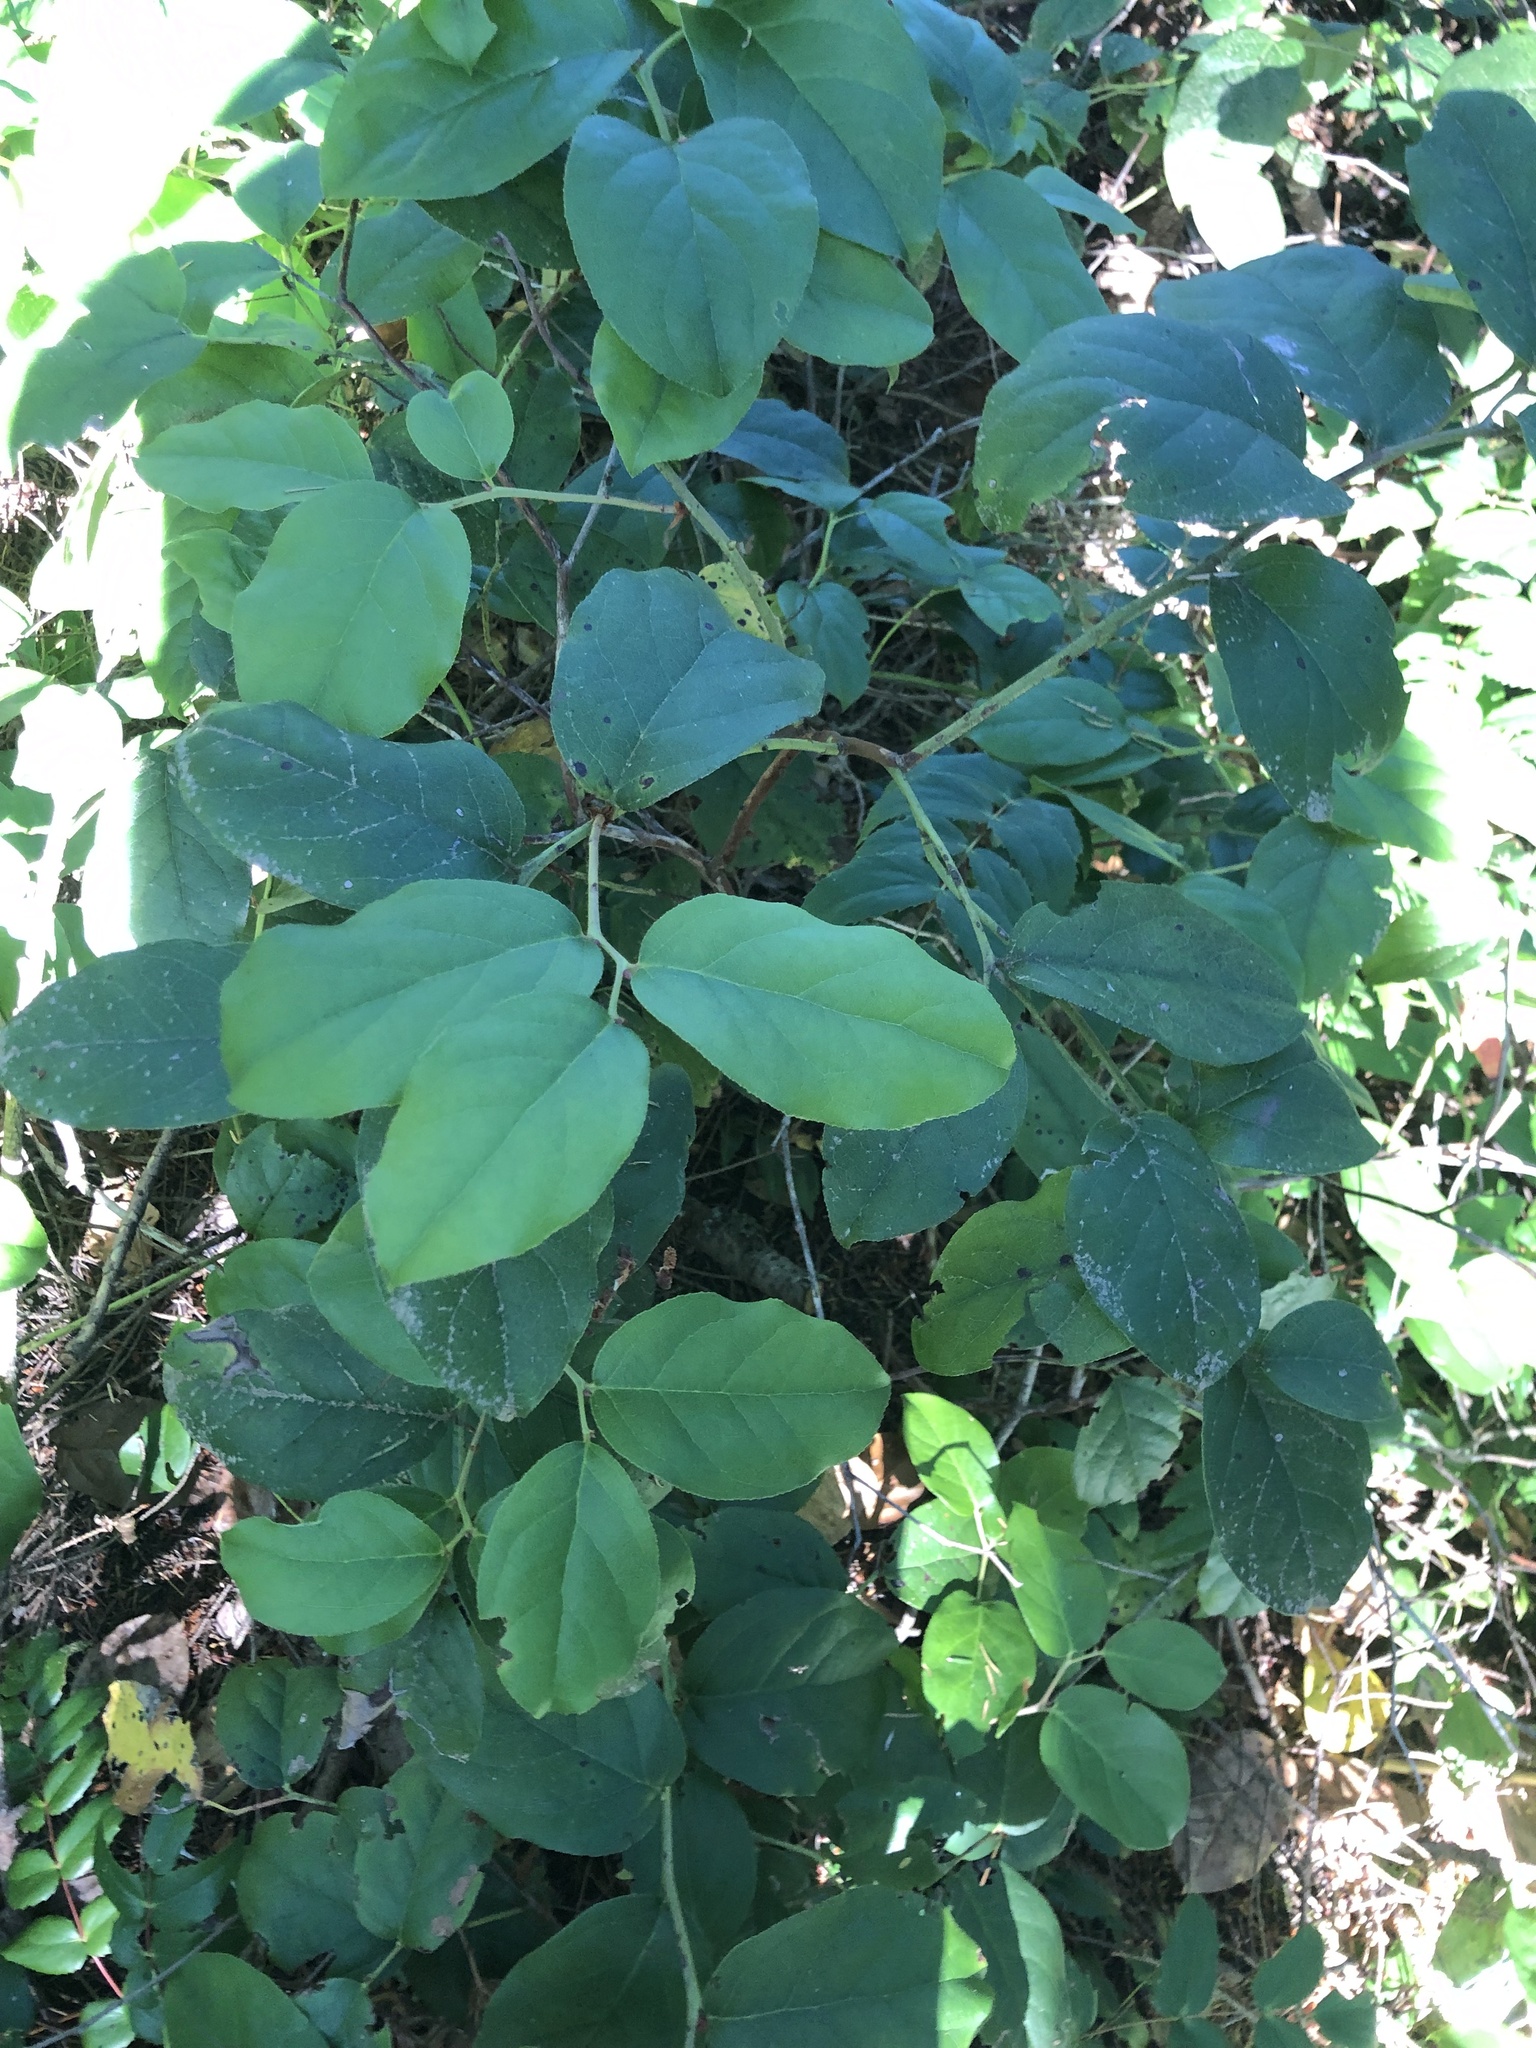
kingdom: Plantae
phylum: Tracheophyta
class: Magnoliopsida
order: Ericales
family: Ericaceae
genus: Gaultheria
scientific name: Gaultheria shallon
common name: Shallon
